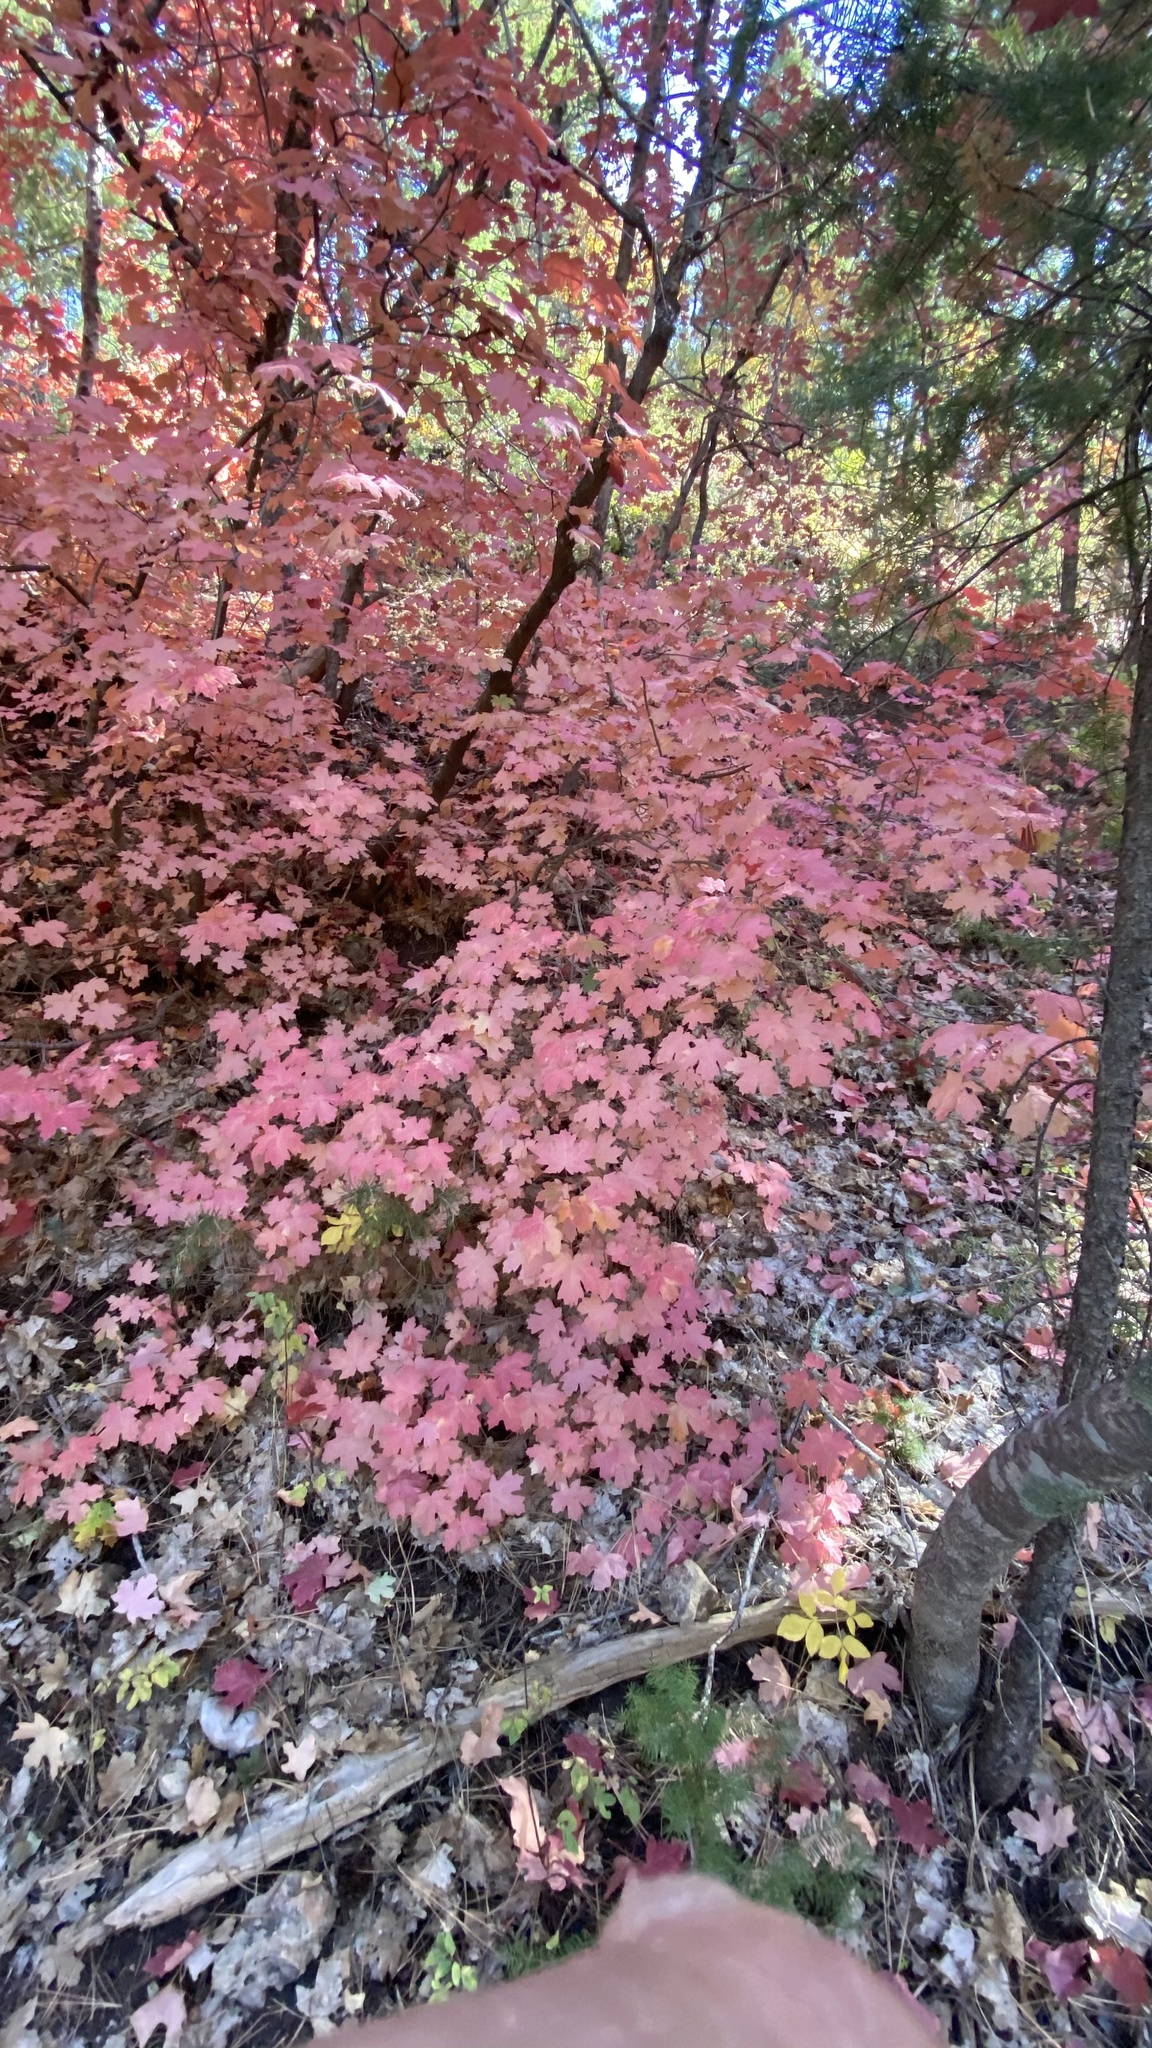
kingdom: Plantae
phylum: Tracheophyta
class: Magnoliopsida
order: Sapindales
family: Sapindaceae
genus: Acer
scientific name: Acer grandidentatum
